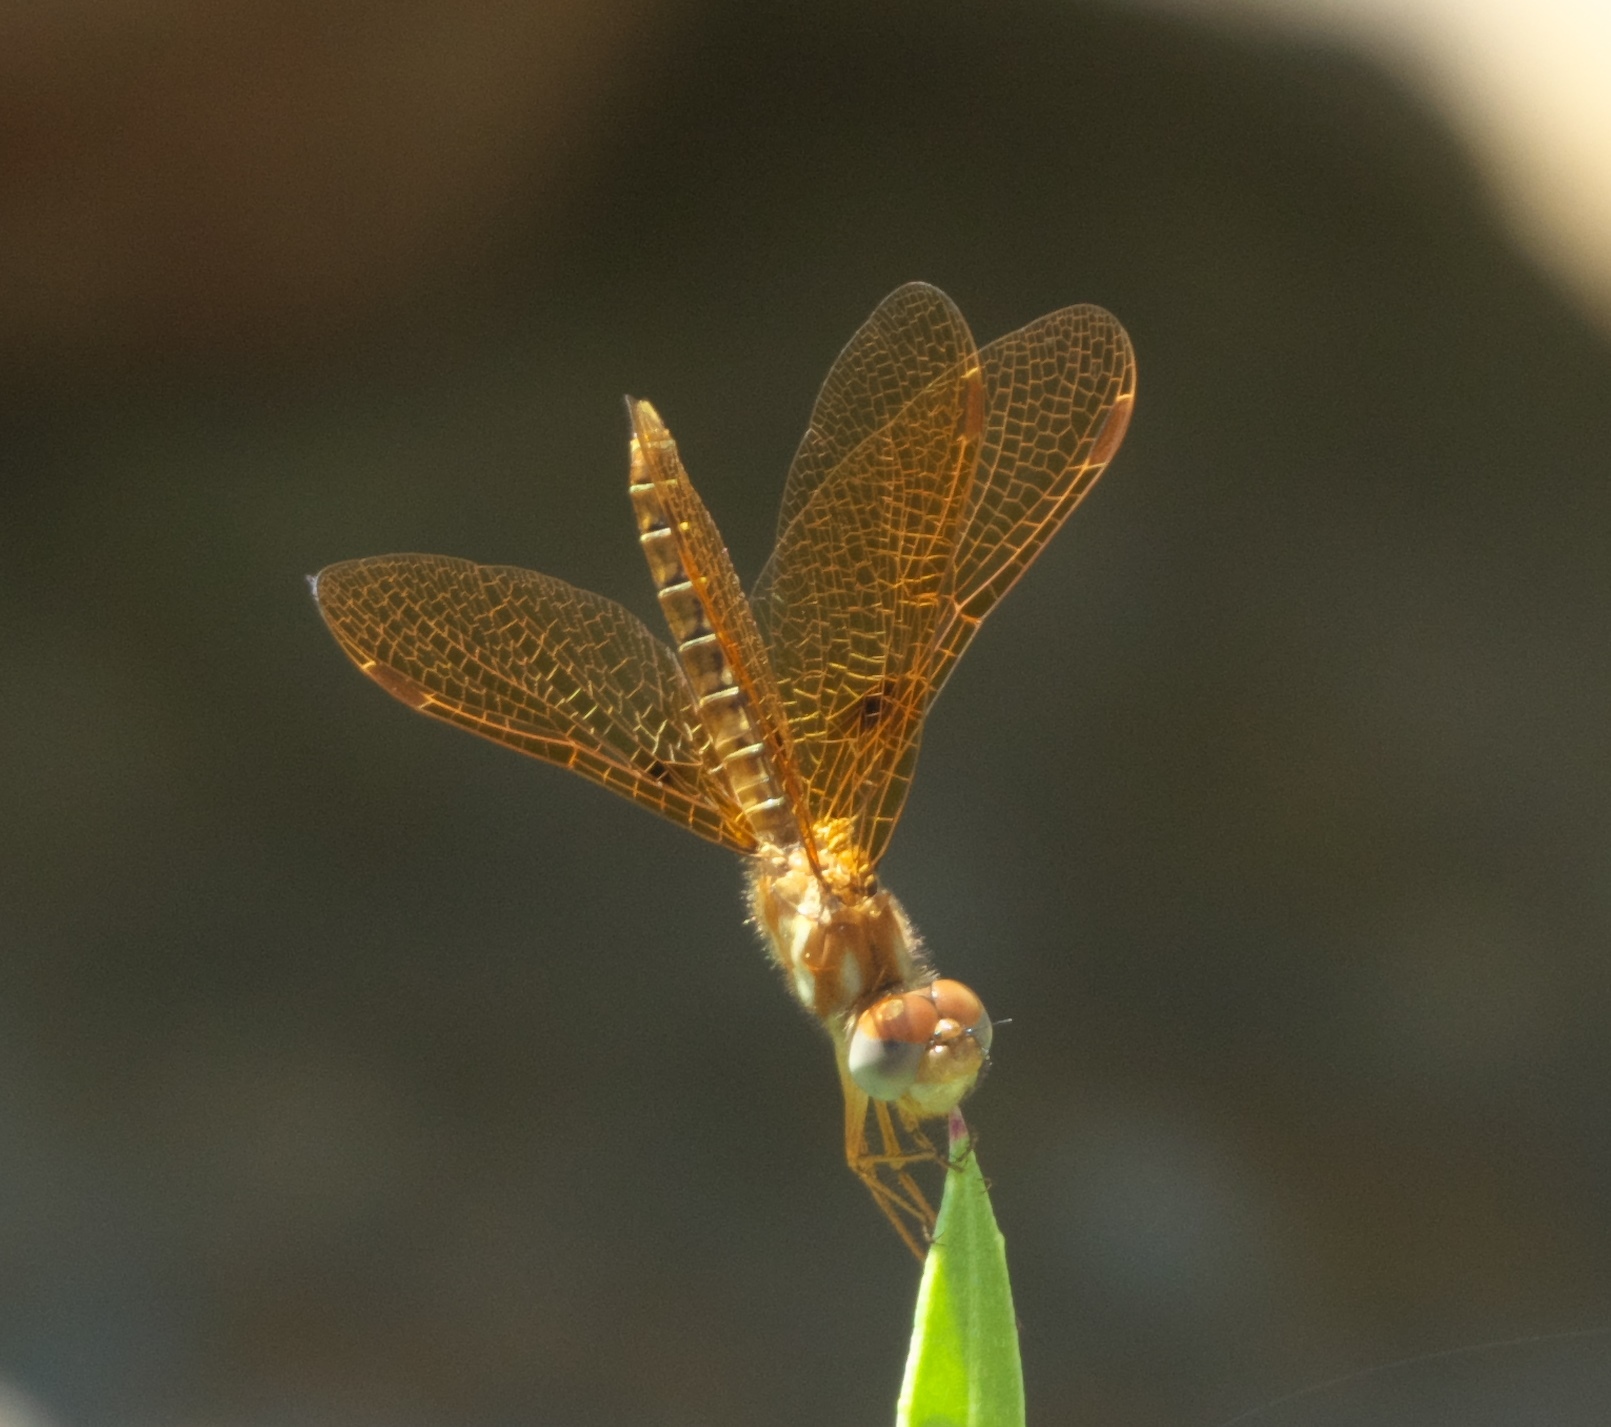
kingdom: Animalia
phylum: Arthropoda
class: Insecta
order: Odonata
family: Libellulidae
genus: Perithemis
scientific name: Perithemis tenera
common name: Eastern amberwing
